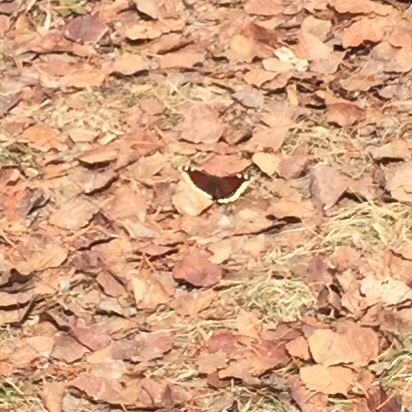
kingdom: Animalia
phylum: Arthropoda
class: Insecta
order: Lepidoptera
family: Nymphalidae
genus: Nymphalis
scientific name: Nymphalis antiopa
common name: Camberwell beauty
